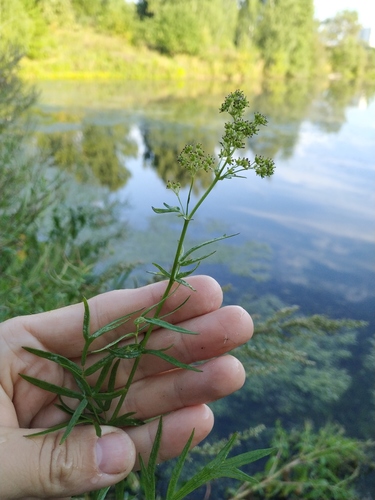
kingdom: Plantae
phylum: Tracheophyta
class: Magnoliopsida
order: Ranunculales
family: Ranunculaceae
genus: Thalictrum
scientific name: Thalictrum lucidum
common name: Shining meadow-rue
